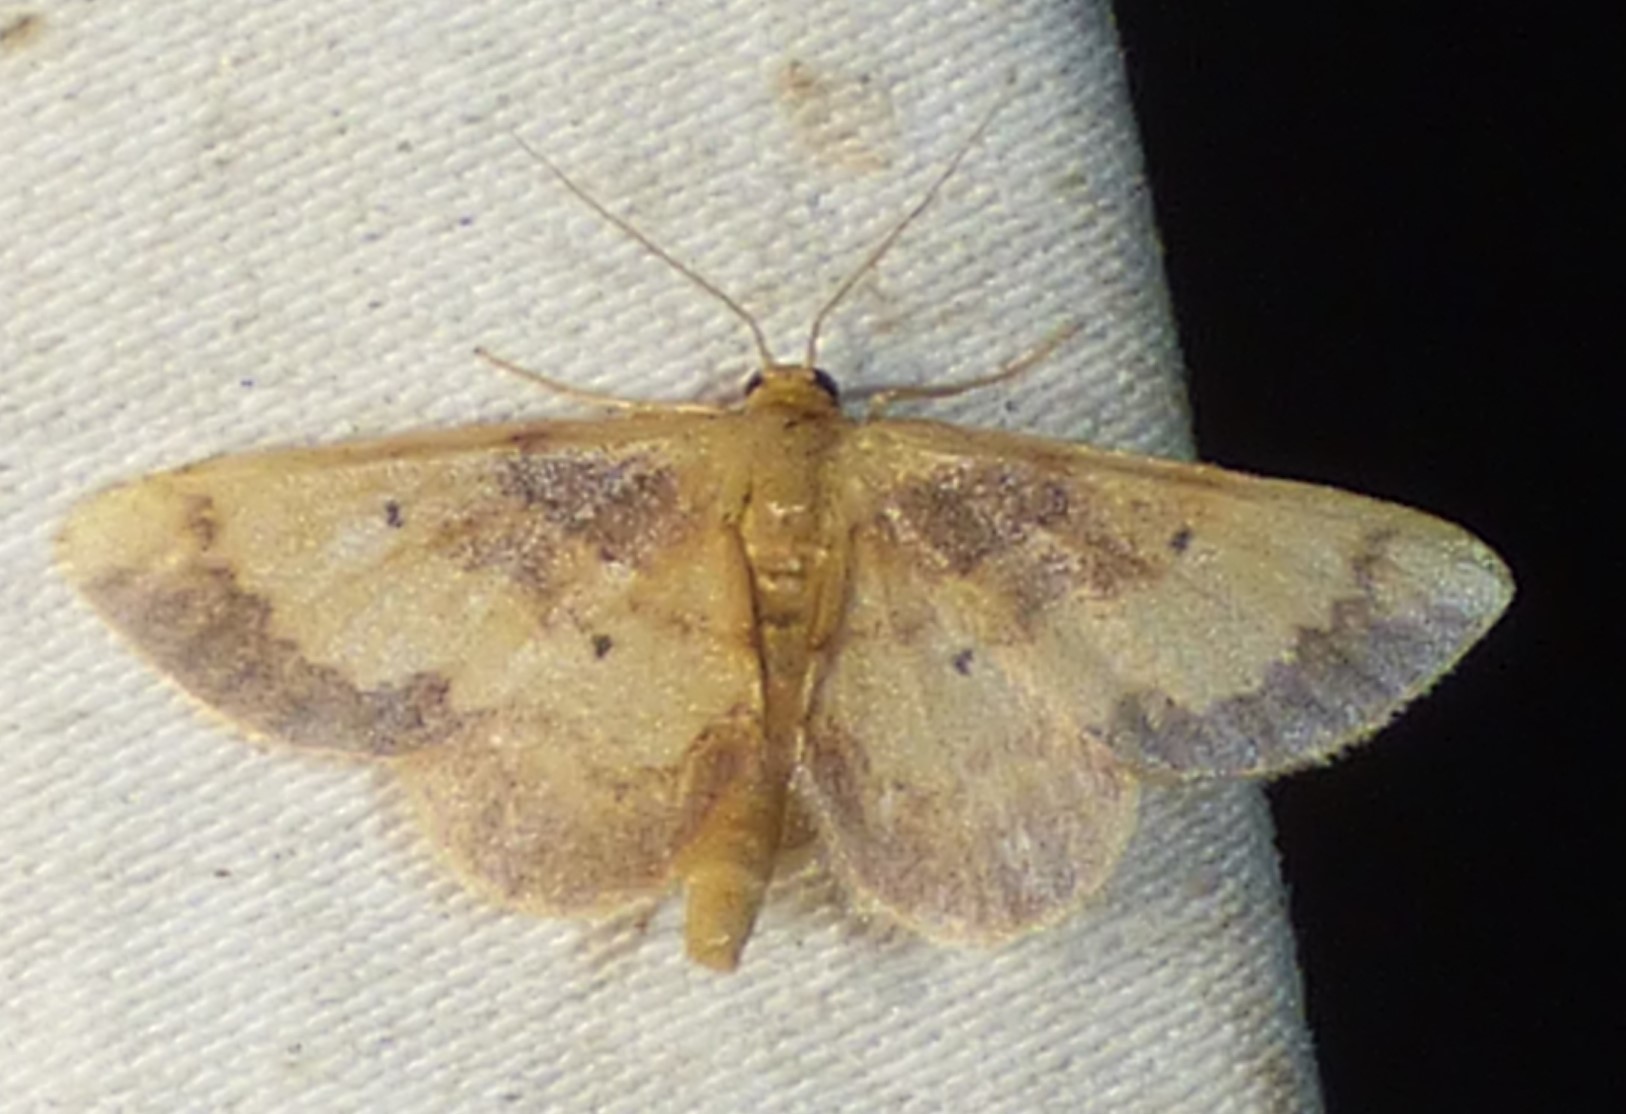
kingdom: Animalia
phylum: Arthropoda
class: Insecta
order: Lepidoptera
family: Geometridae
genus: Idaea
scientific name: Idaea demissaria
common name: Red-bordered wave
